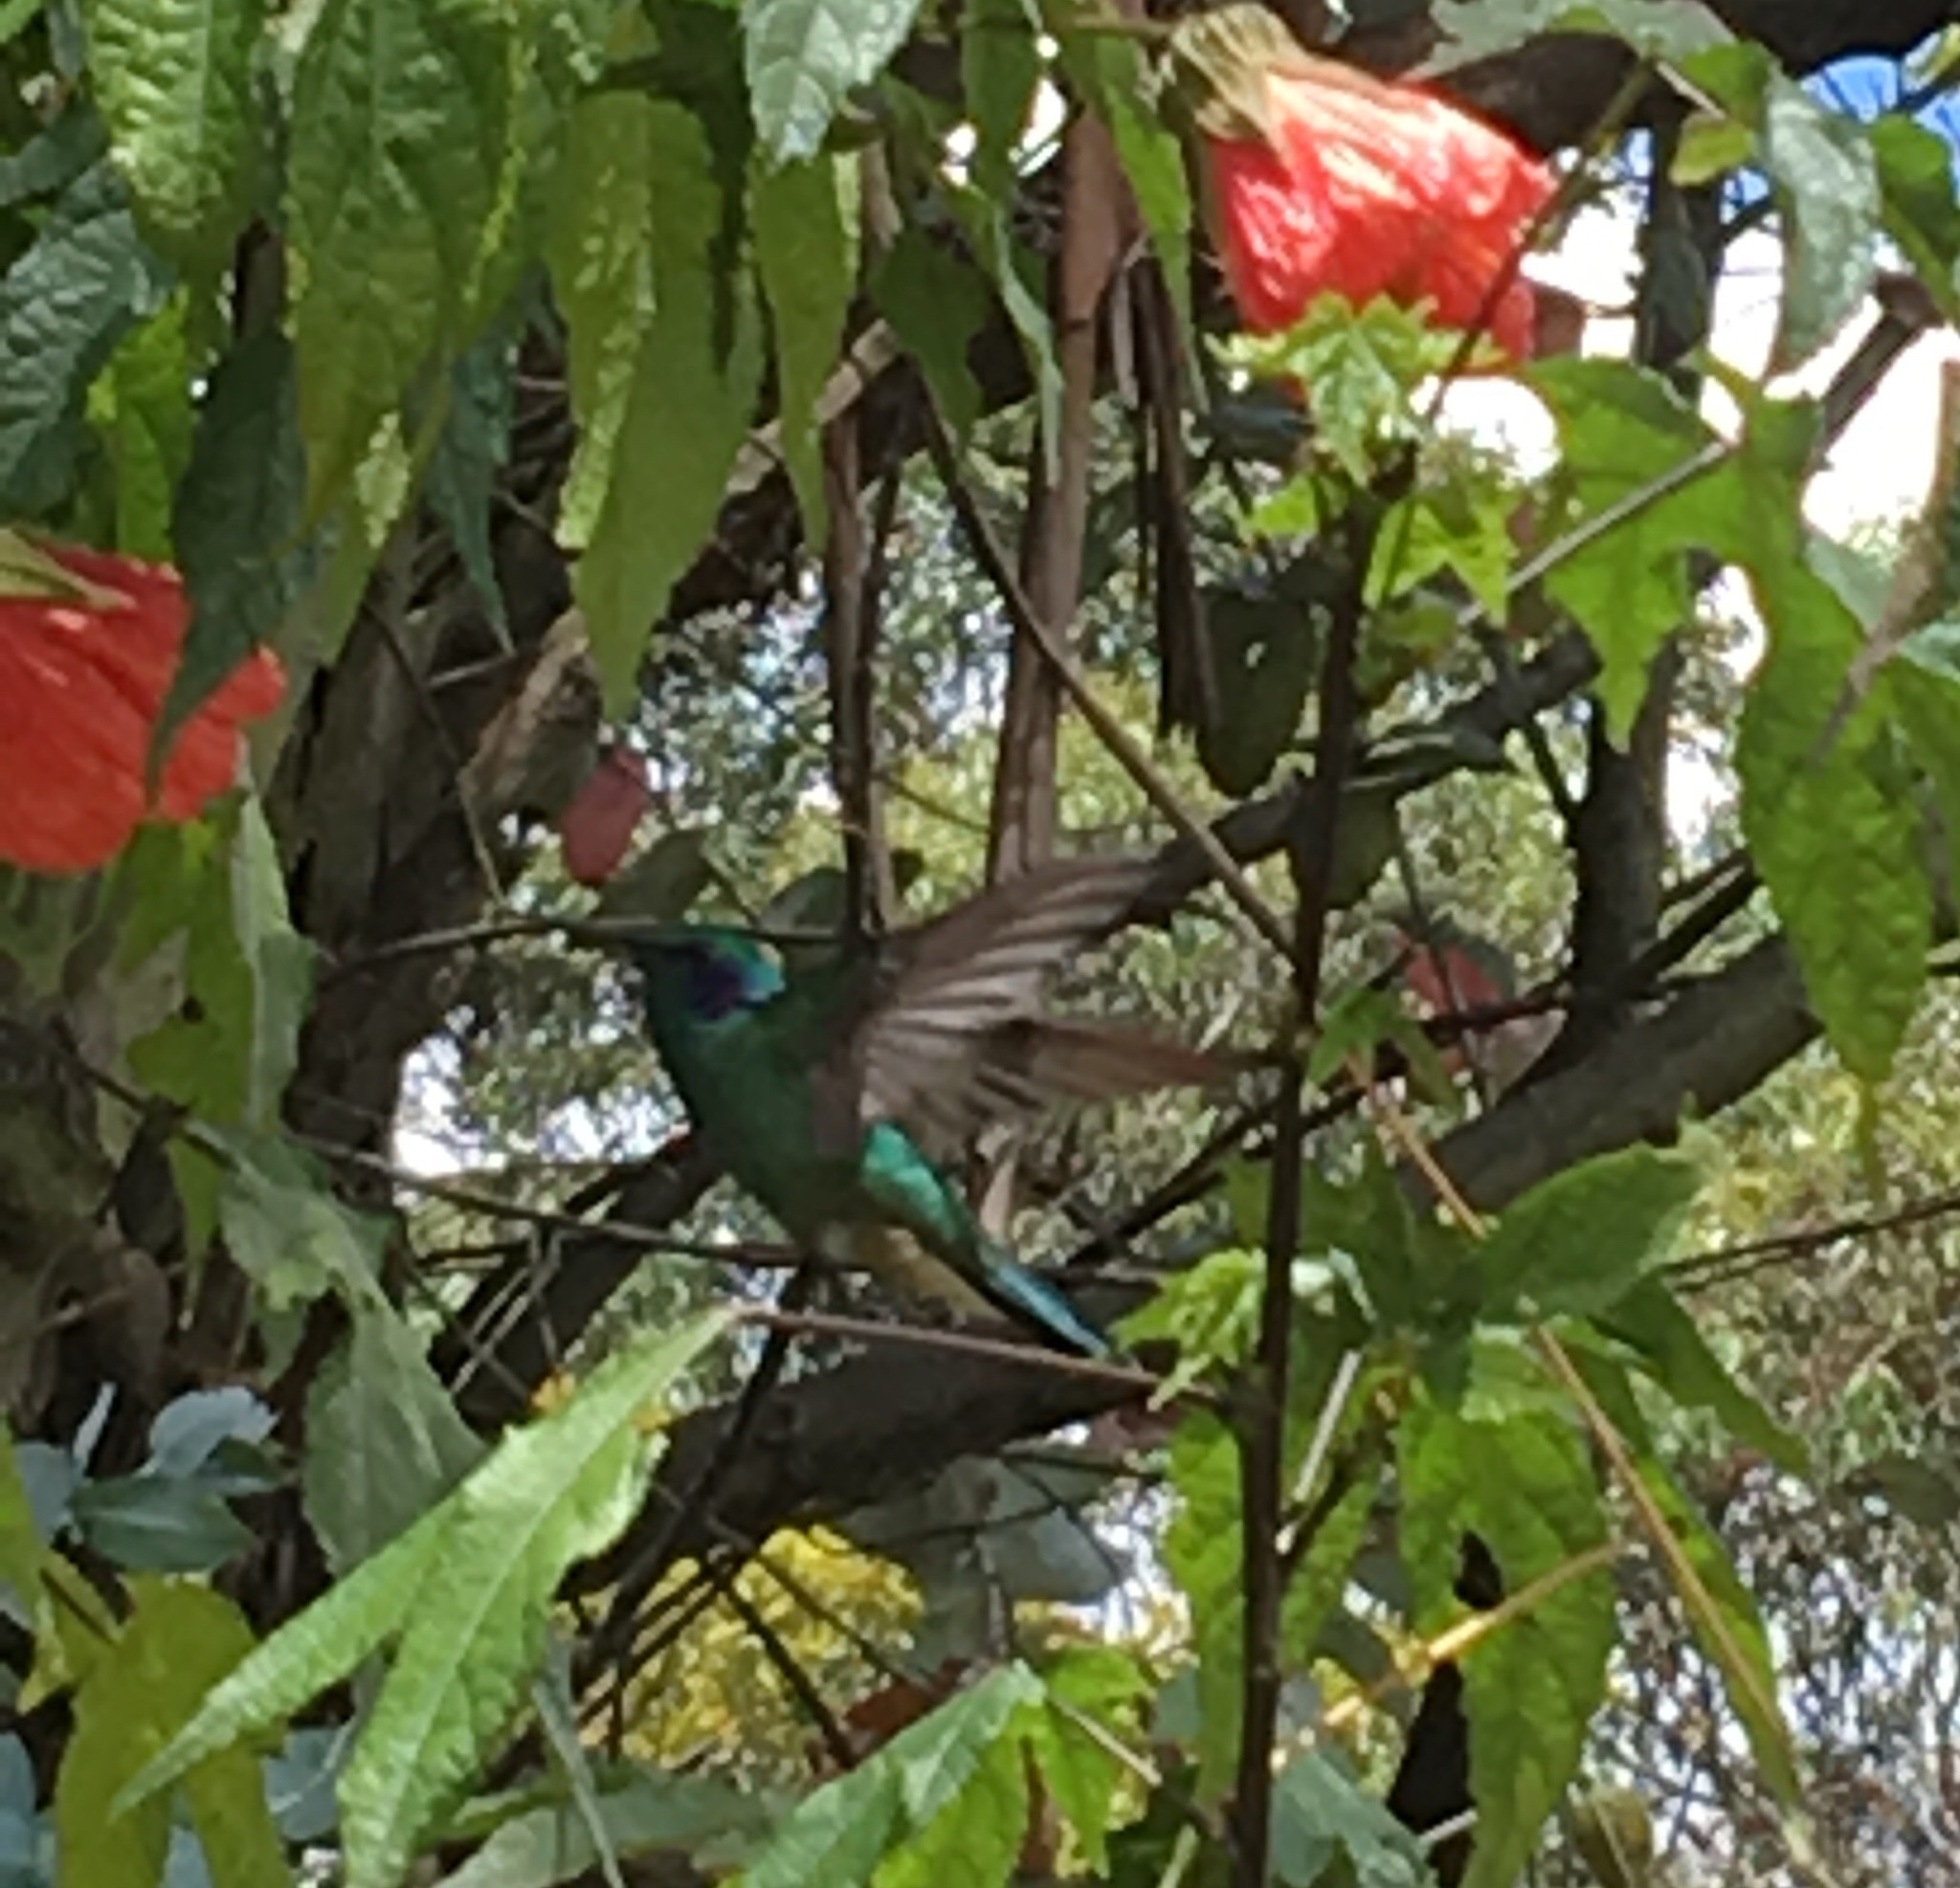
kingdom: Animalia
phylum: Chordata
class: Aves
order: Apodiformes
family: Trochilidae
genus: Colibri
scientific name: Colibri coruscans
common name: Sparkling violetear
